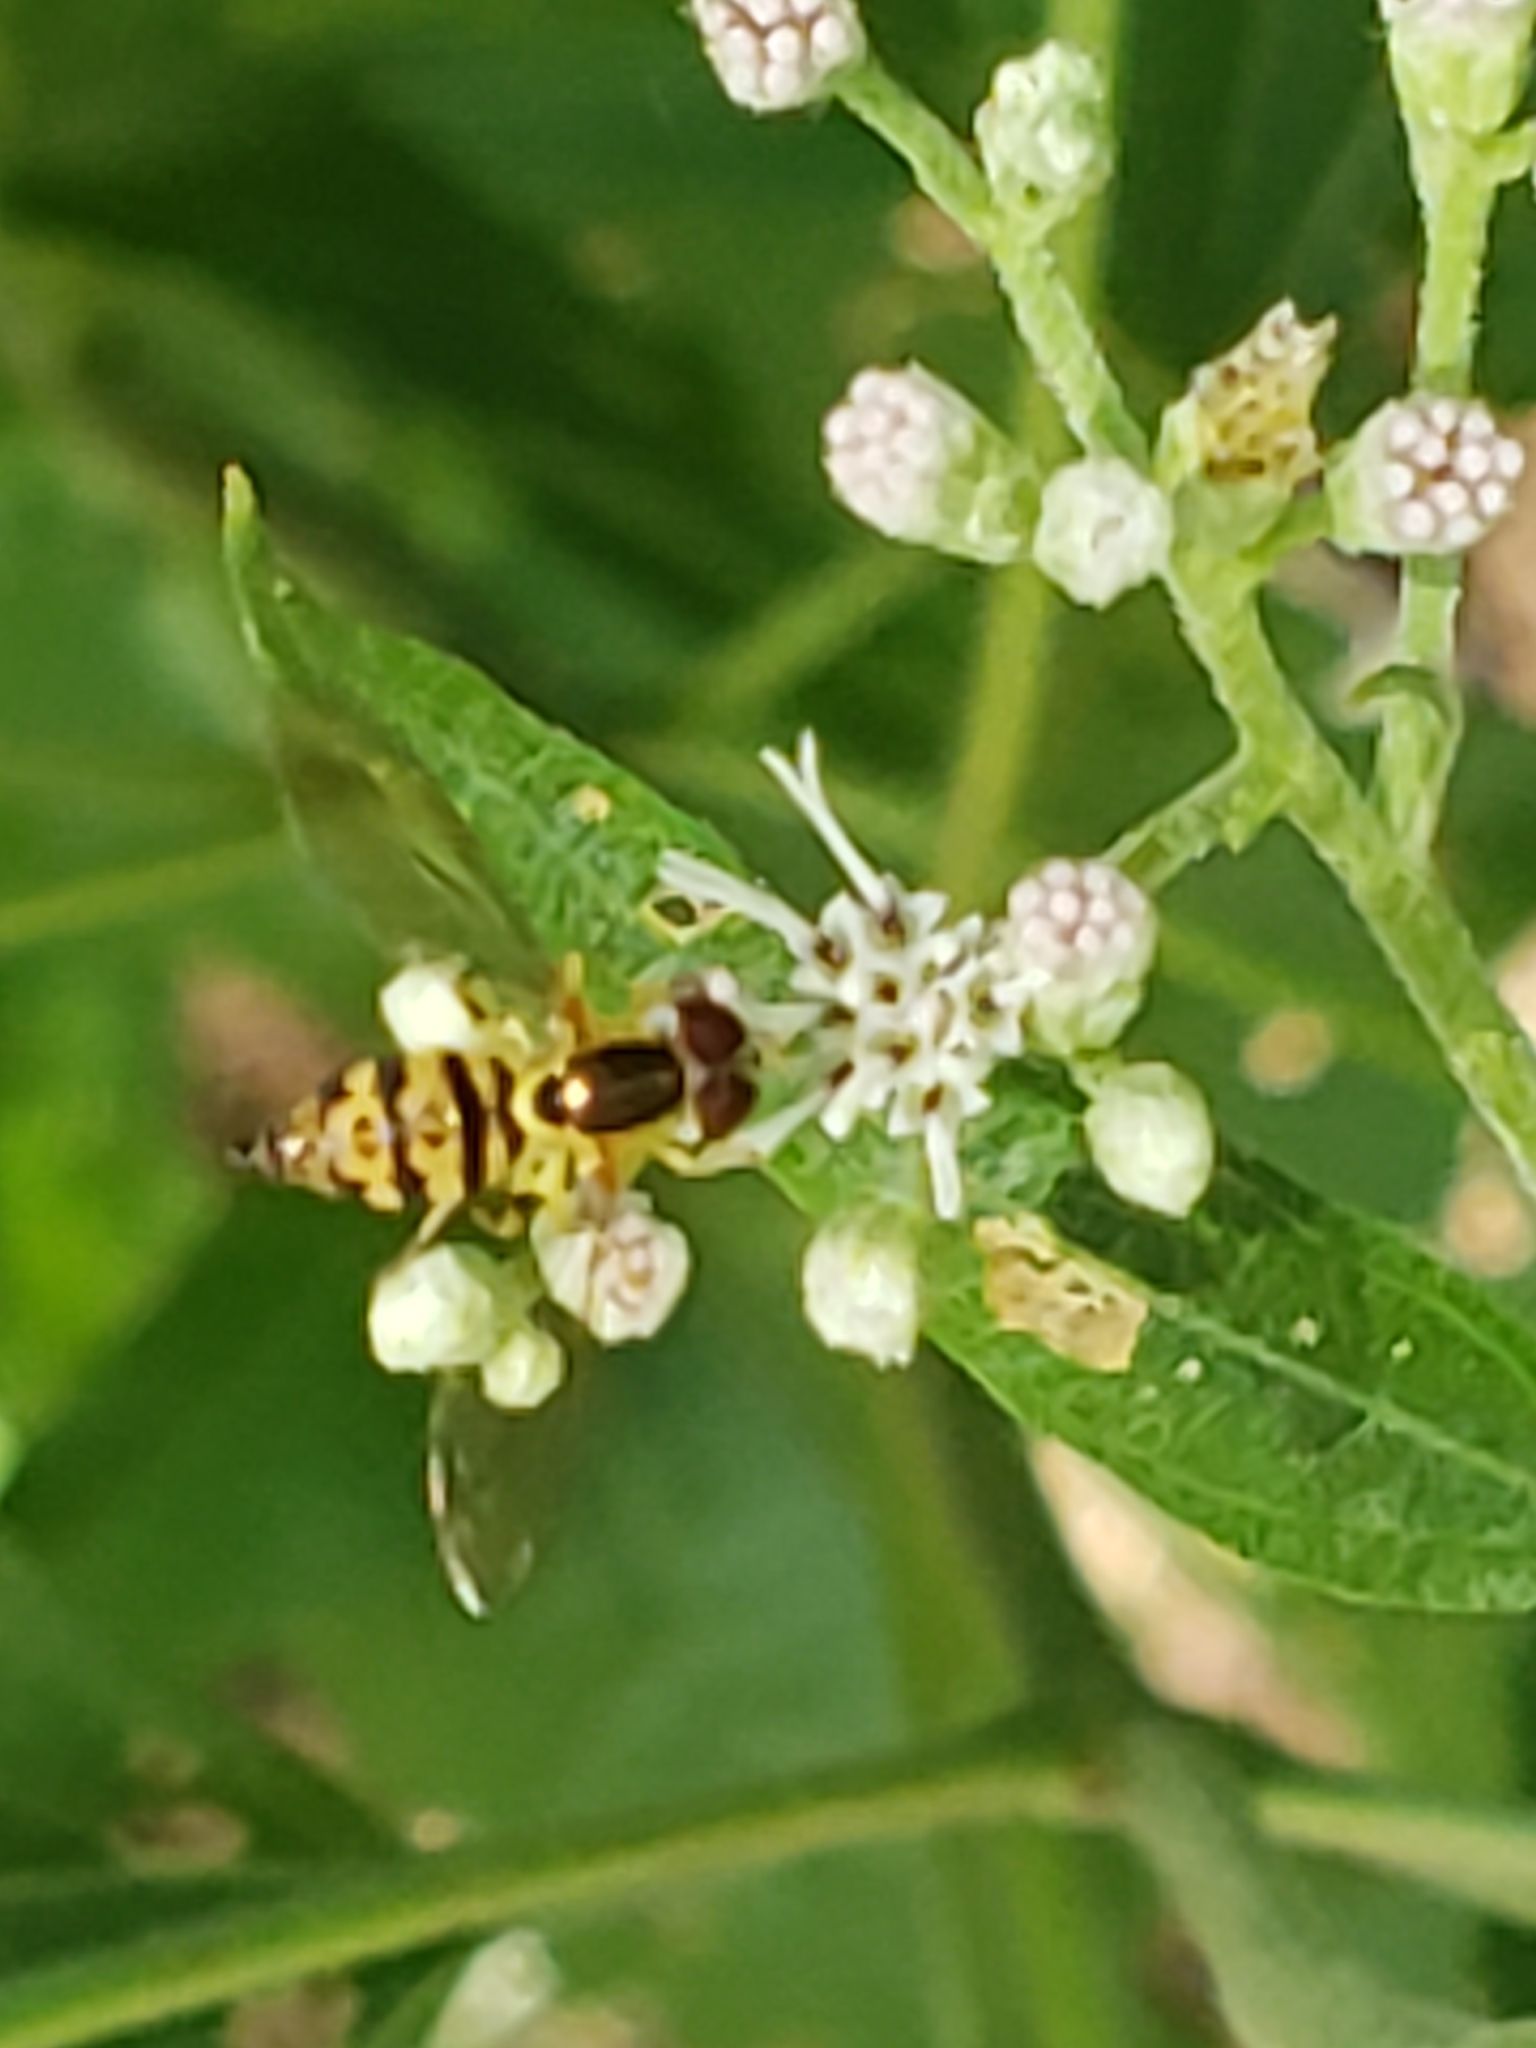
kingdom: Animalia
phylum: Arthropoda
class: Insecta
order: Diptera
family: Syrphidae
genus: Toxomerus
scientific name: Toxomerus geminatus
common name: Eastern calligrapher
